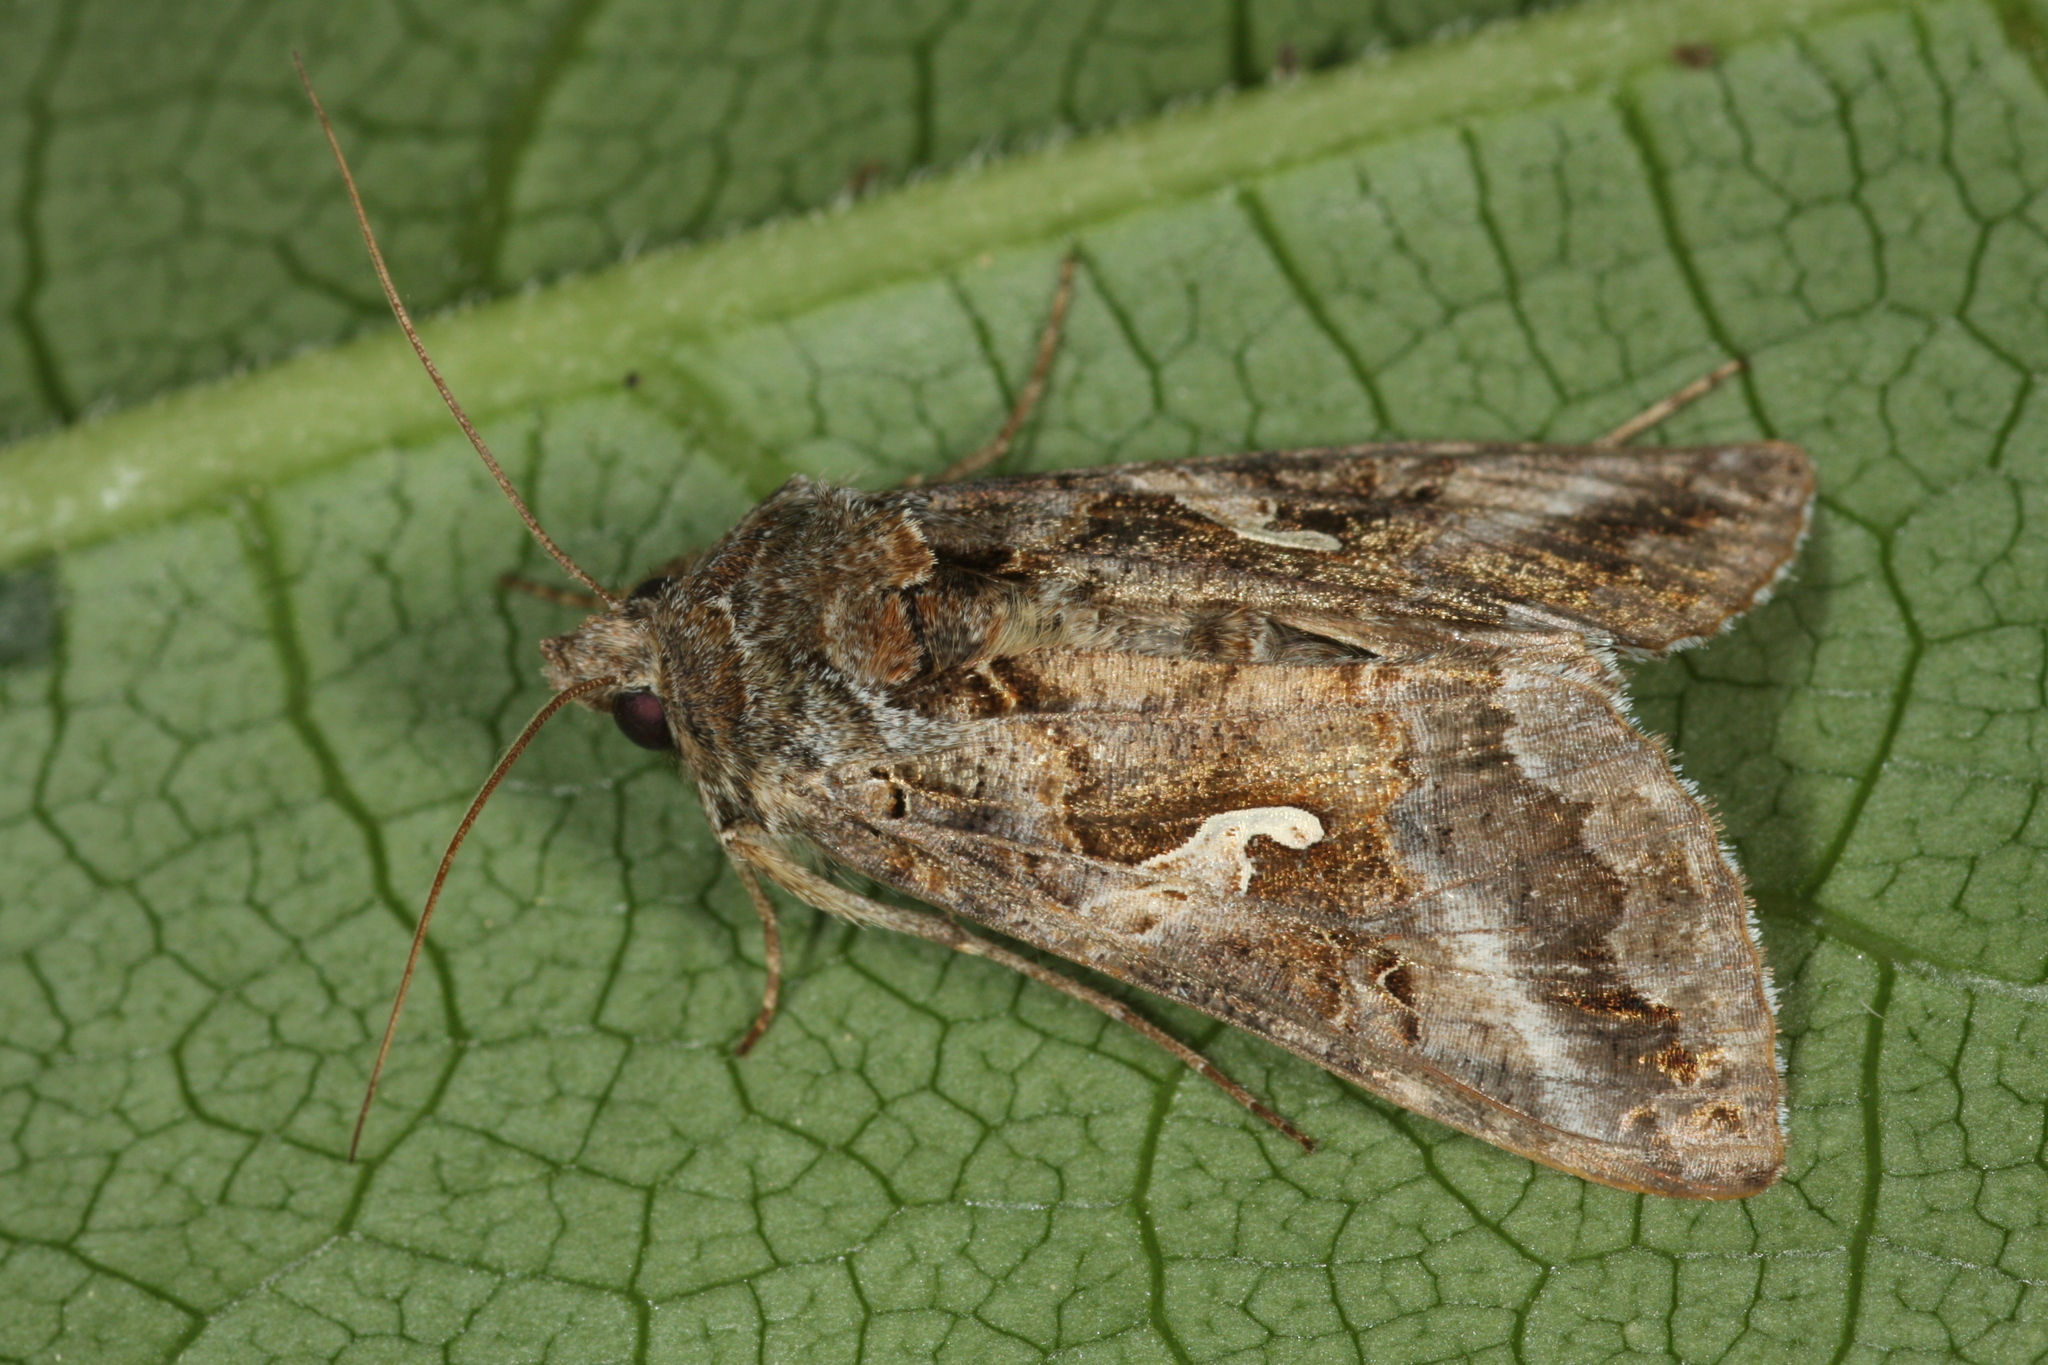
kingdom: Animalia
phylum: Arthropoda
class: Insecta
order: Lepidoptera
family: Noctuidae
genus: Autographa
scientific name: Autographa gamma
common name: Silver y
